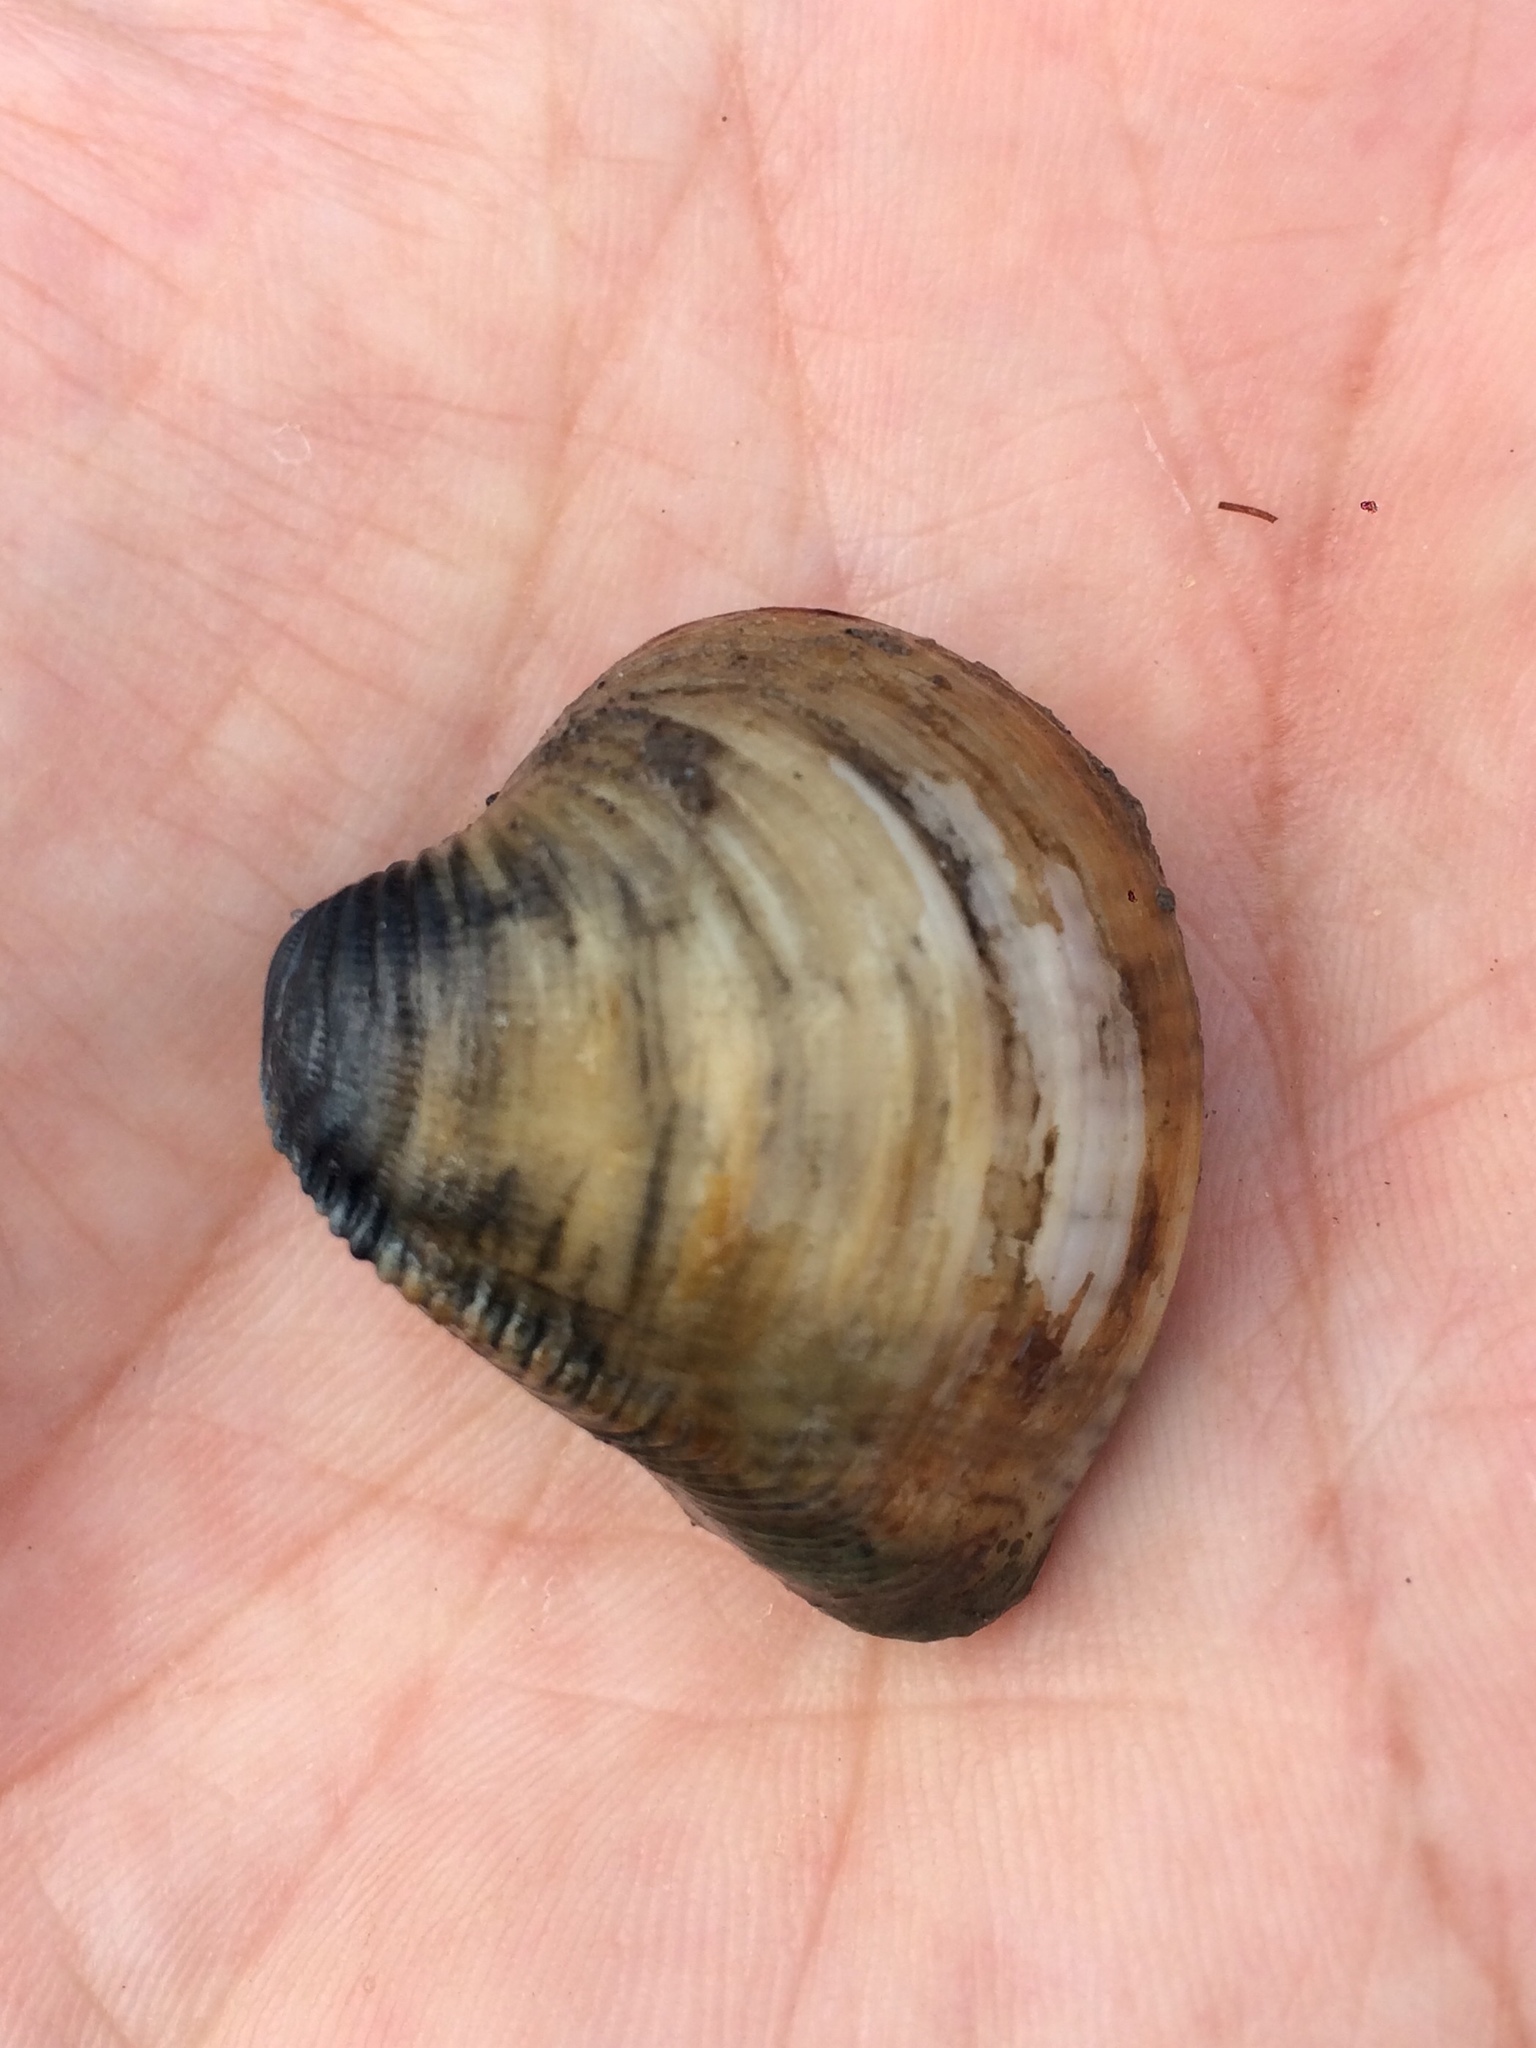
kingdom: Animalia
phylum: Mollusca
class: Bivalvia
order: Venerida
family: Veneridae
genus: Anomalocardia
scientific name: Anomalocardia flexuosa
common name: Carib pointed venus
